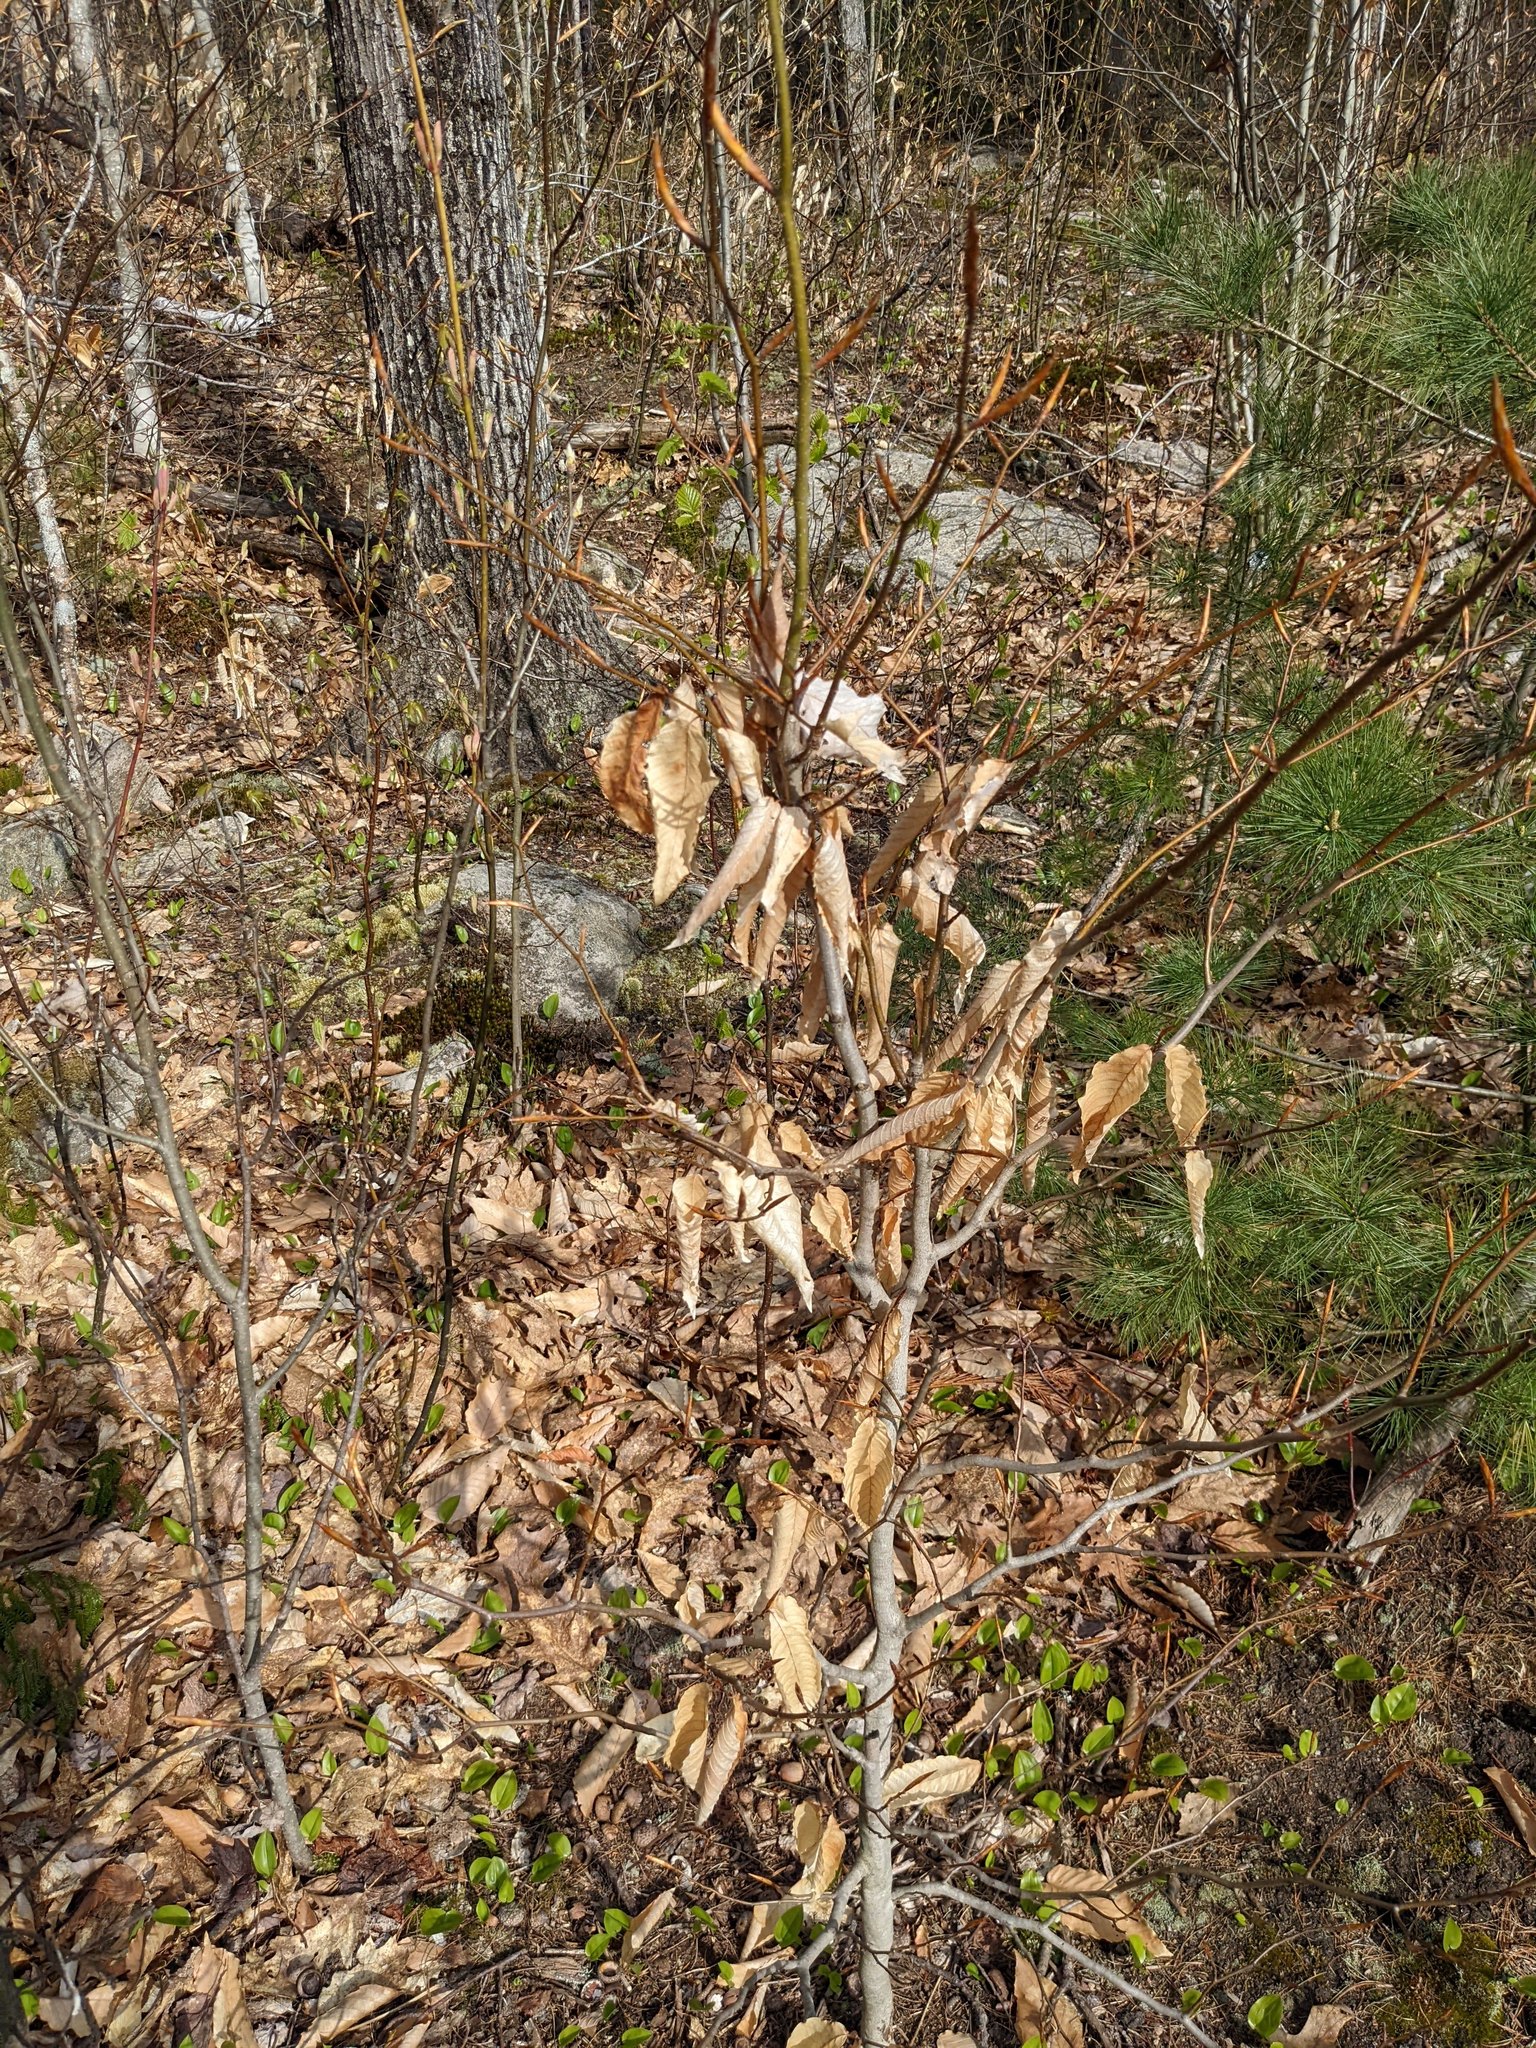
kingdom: Plantae
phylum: Tracheophyta
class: Magnoliopsida
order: Fagales
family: Fagaceae
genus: Fagus
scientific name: Fagus grandifolia
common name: American beech
